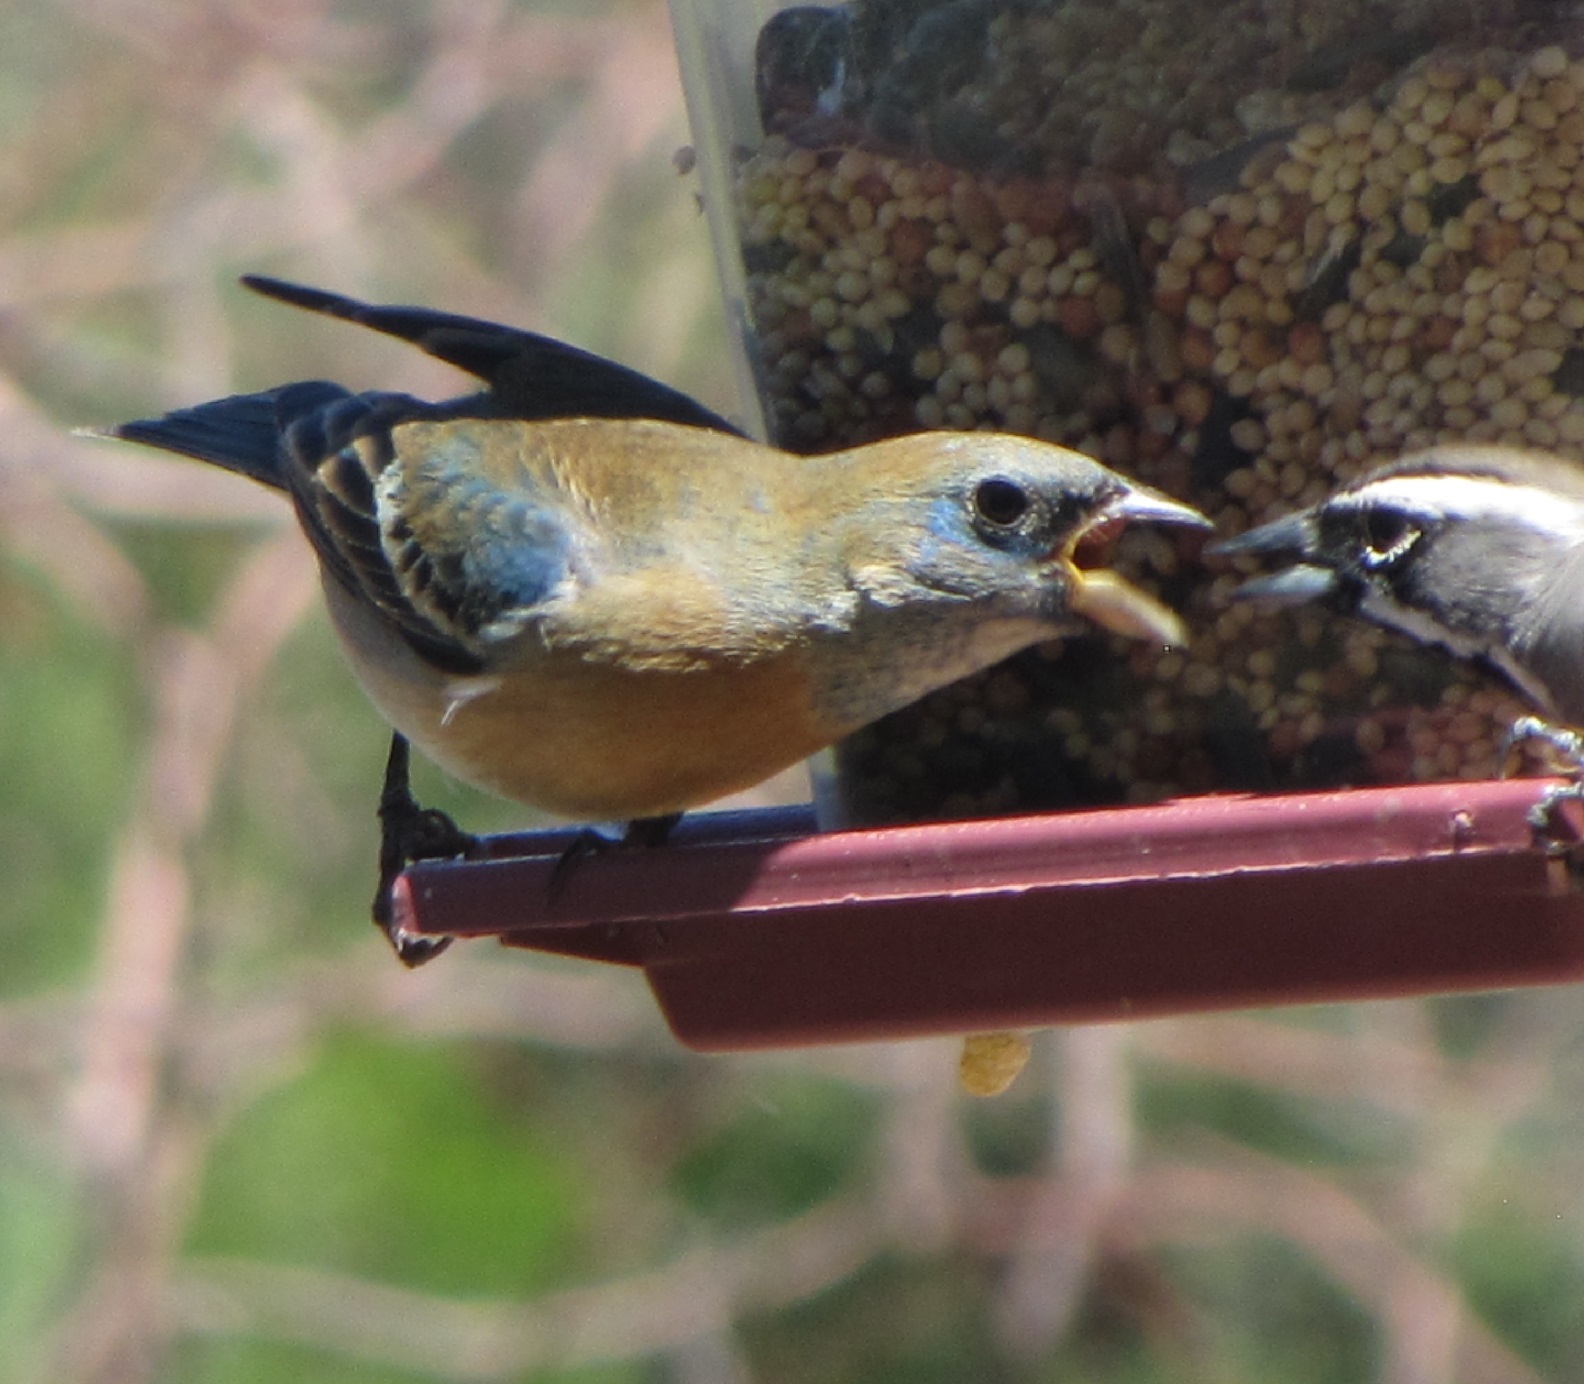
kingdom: Animalia
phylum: Chordata
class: Aves
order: Passeriformes
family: Cardinalidae
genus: Passerina
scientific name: Passerina amoena
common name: Lazuli bunting
